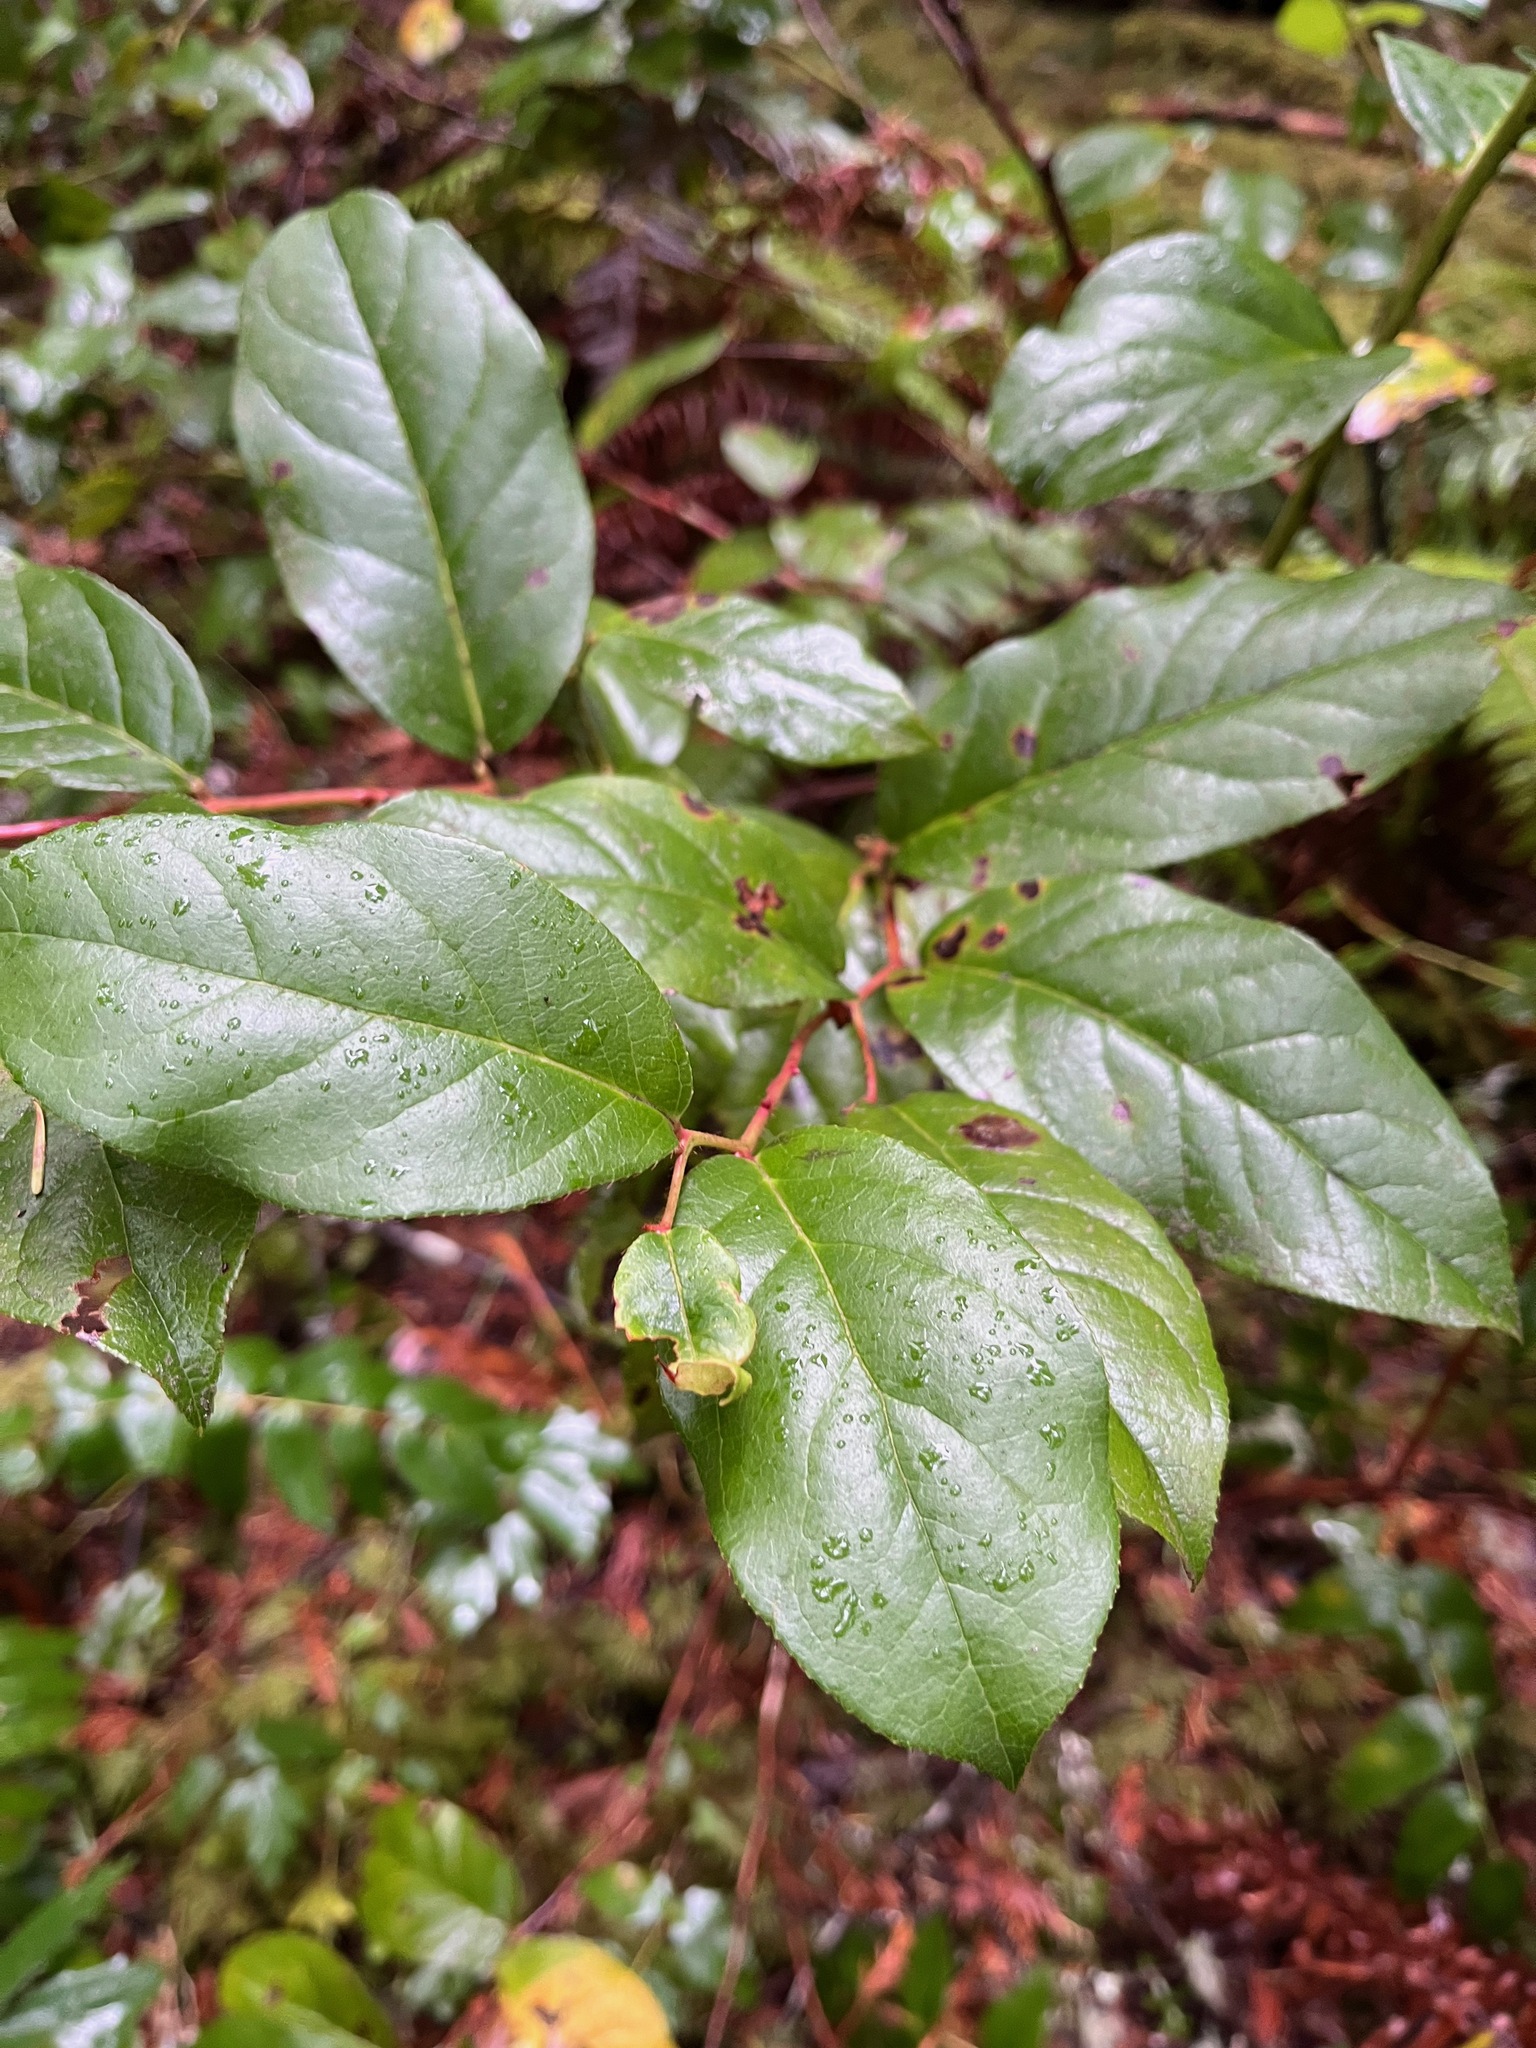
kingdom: Plantae
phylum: Tracheophyta
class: Magnoliopsida
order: Ericales
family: Ericaceae
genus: Gaultheria
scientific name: Gaultheria shallon
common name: Shallon
